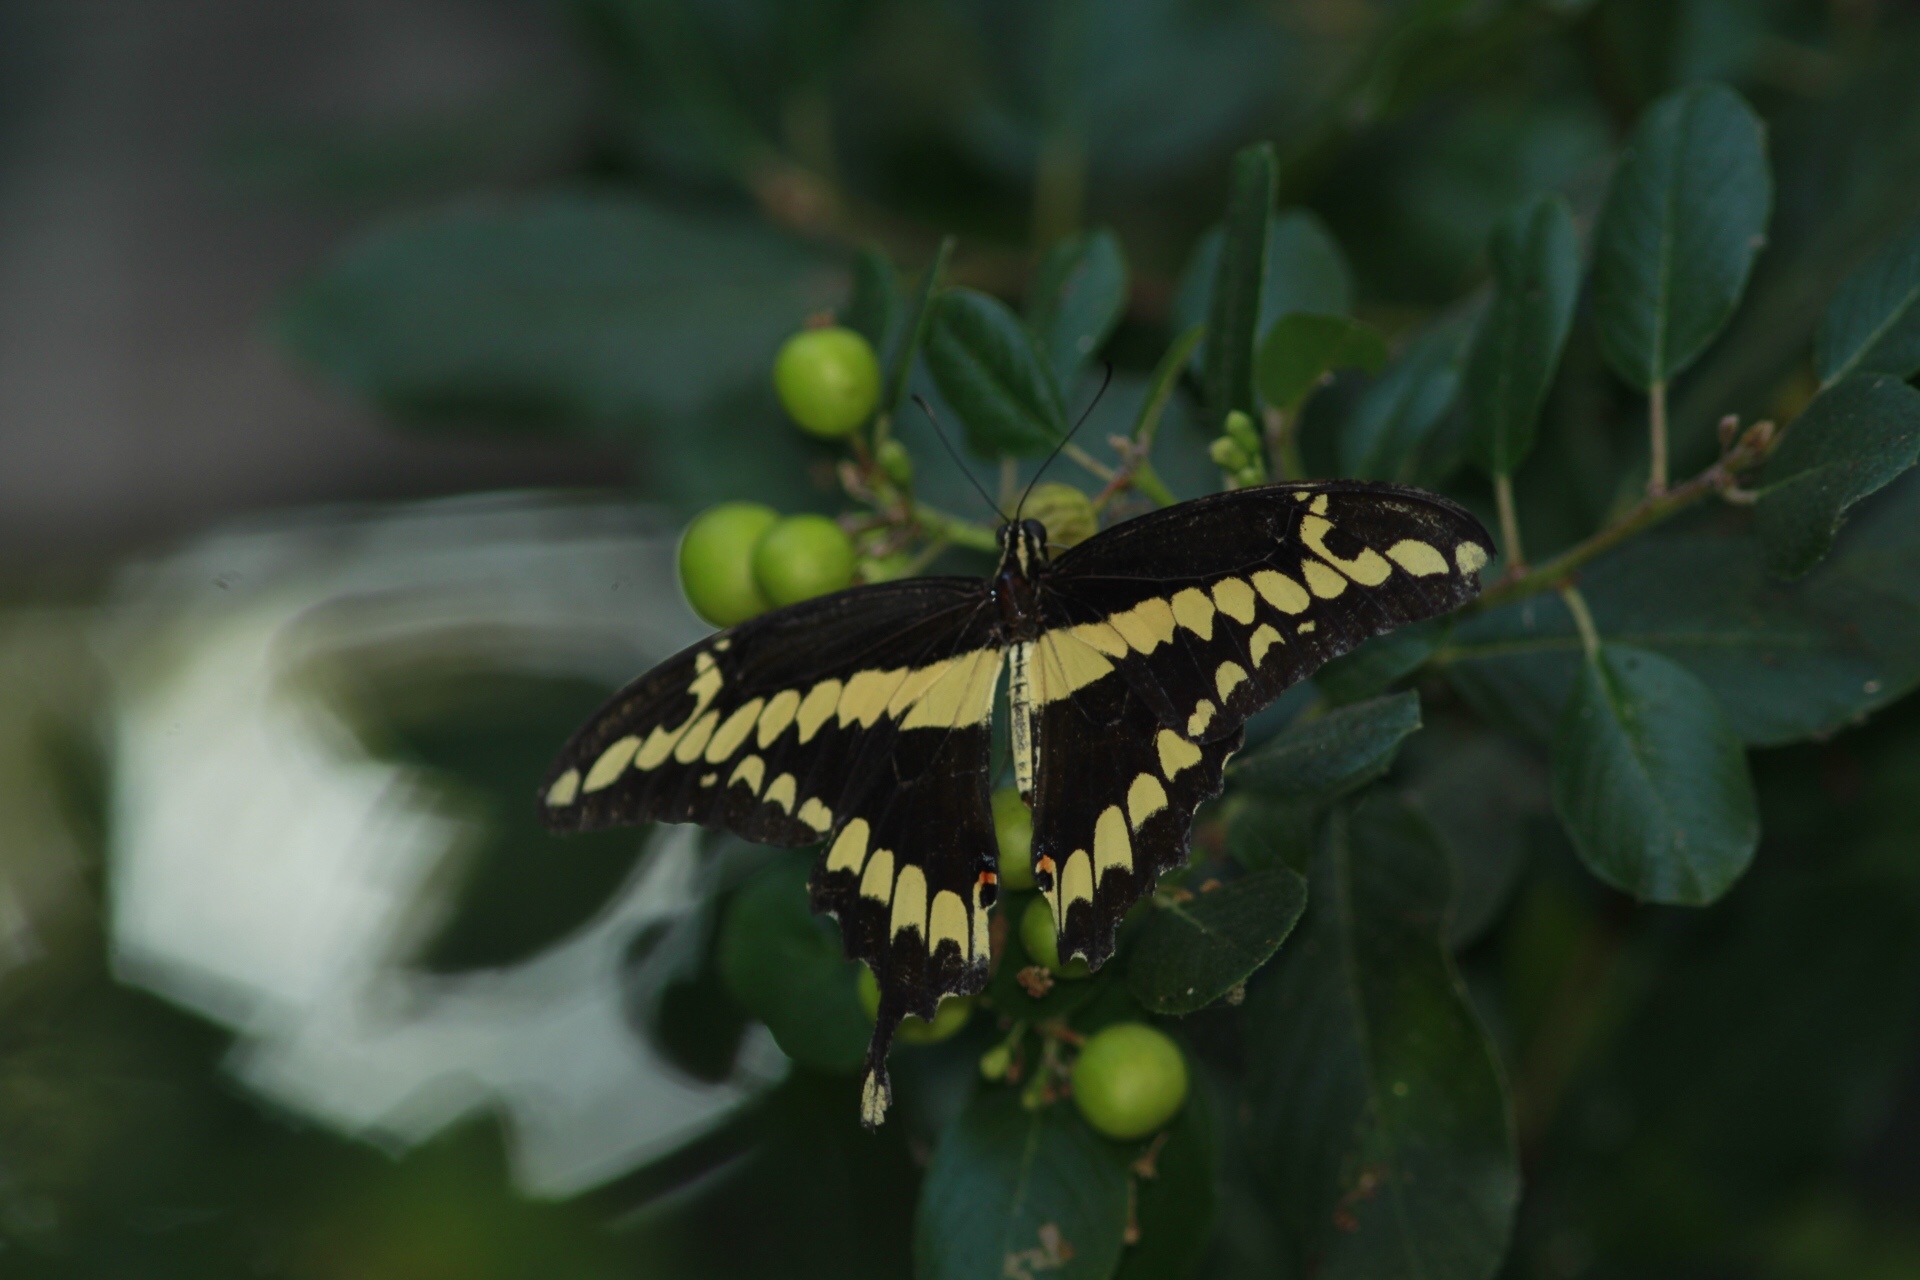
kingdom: Animalia
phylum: Arthropoda
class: Insecta
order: Lepidoptera
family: Papilionidae
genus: Papilio
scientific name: Papilio rumiko
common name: Western giant swallowtail
